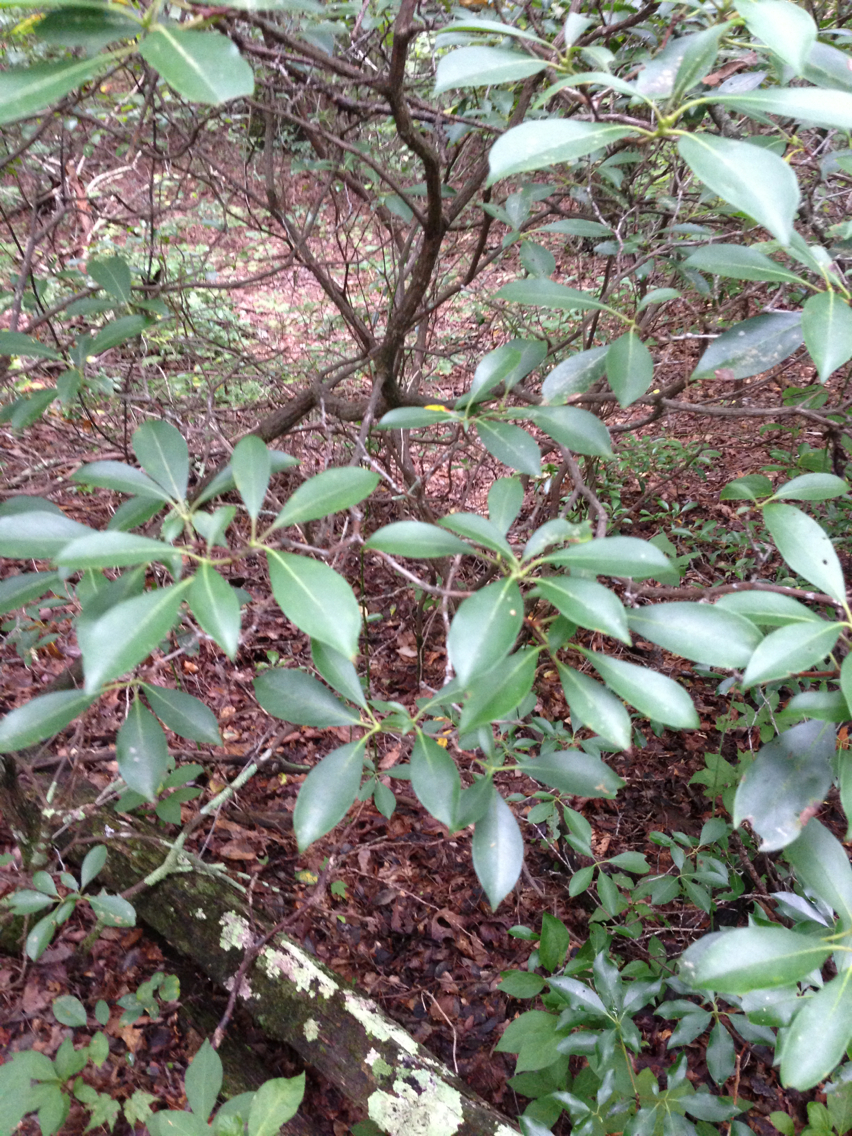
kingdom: Plantae
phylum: Tracheophyta
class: Magnoliopsida
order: Ericales
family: Ericaceae
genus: Kalmia
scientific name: Kalmia latifolia
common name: Mountain-laurel
